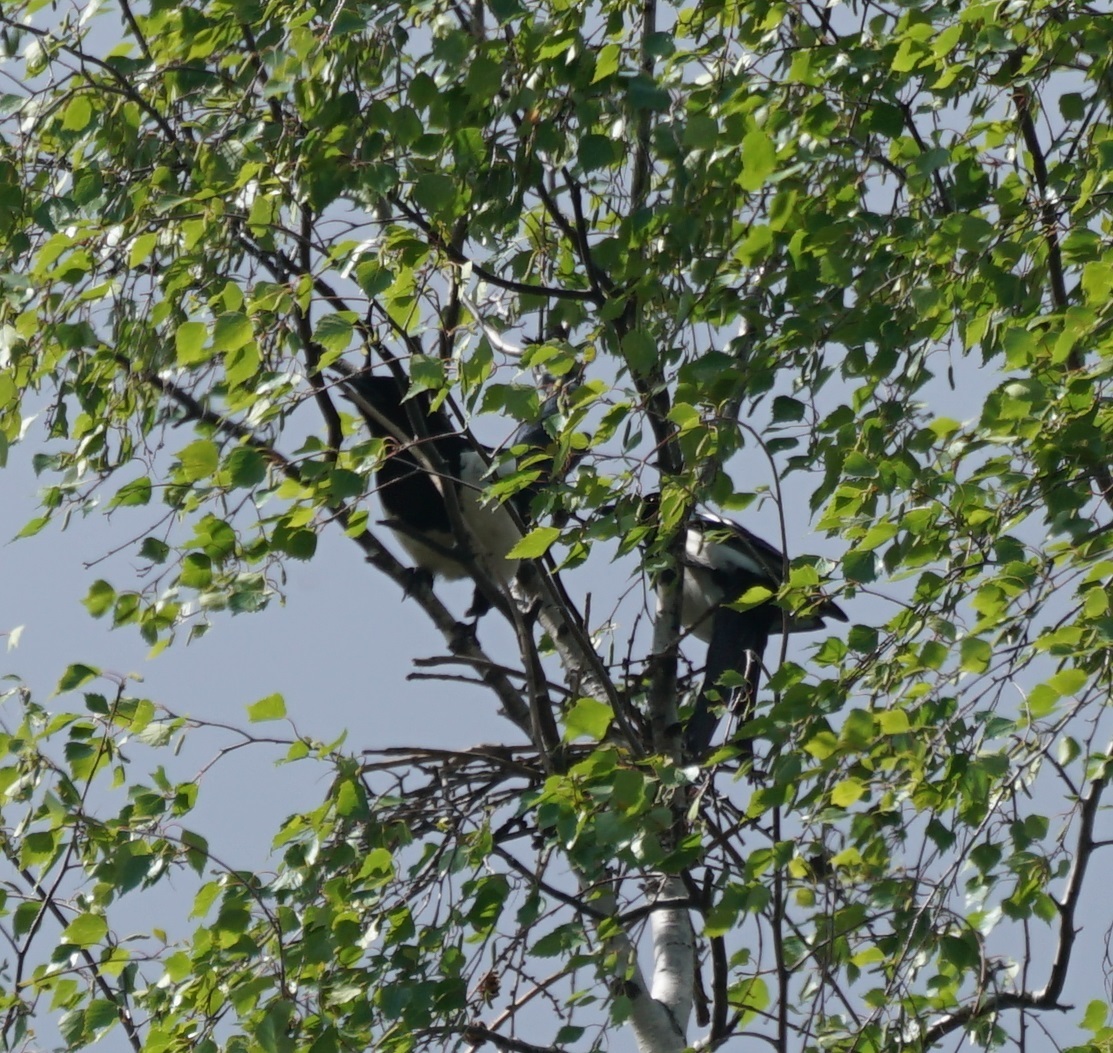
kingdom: Animalia
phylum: Chordata
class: Aves
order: Passeriformes
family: Corvidae
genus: Pica
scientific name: Pica pica
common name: Eurasian magpie
